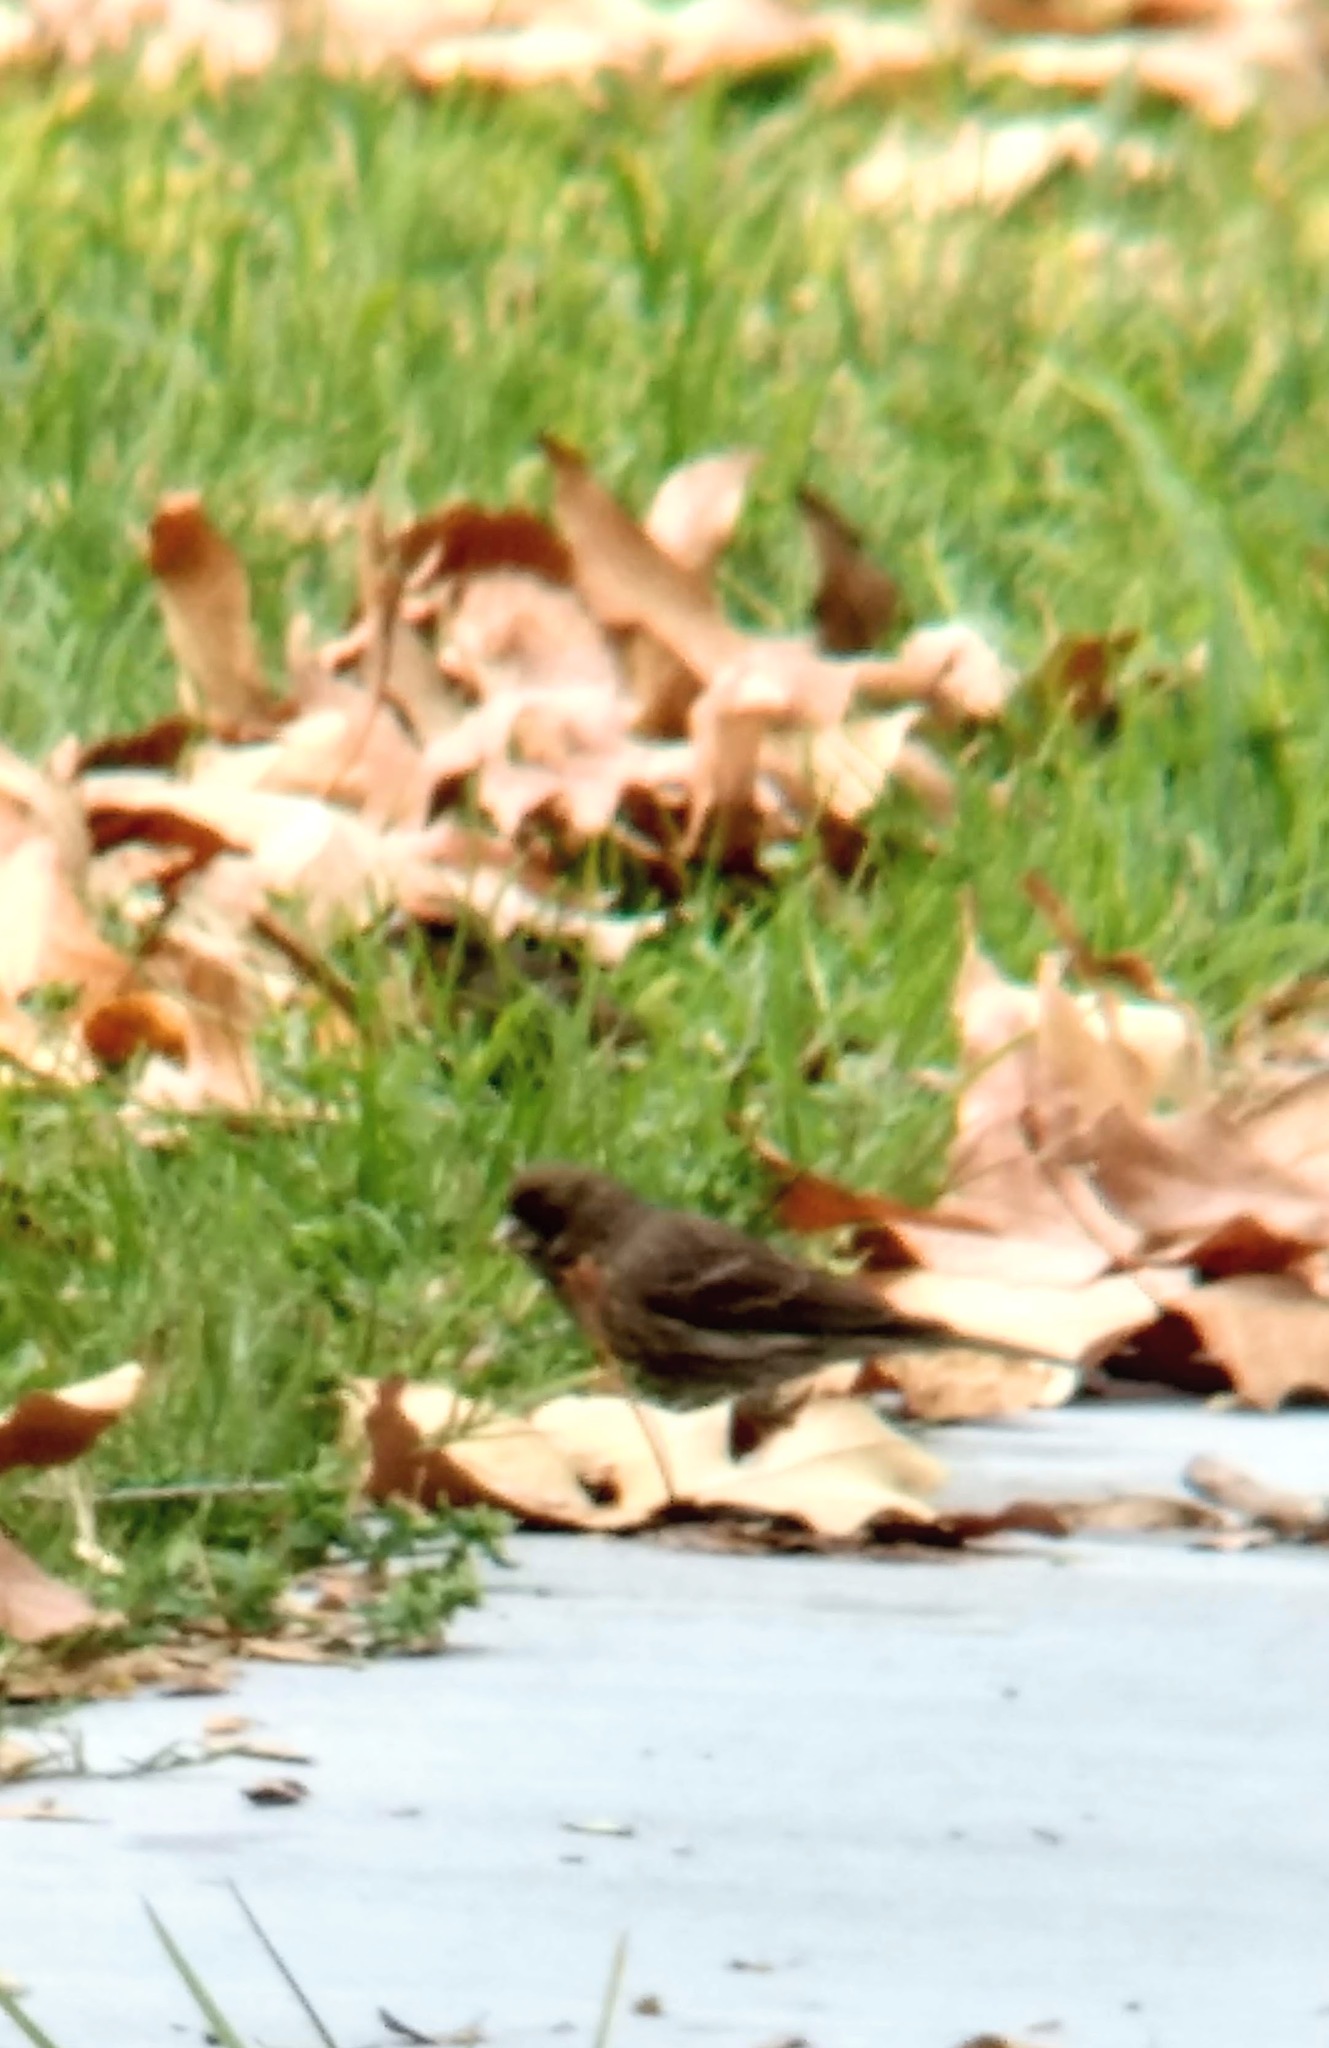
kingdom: Animalia
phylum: Chordata
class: Aves
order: Passeriformes
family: Fringillidae
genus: Haemorhous
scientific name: Haemorhous mexicanus
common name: House finch
